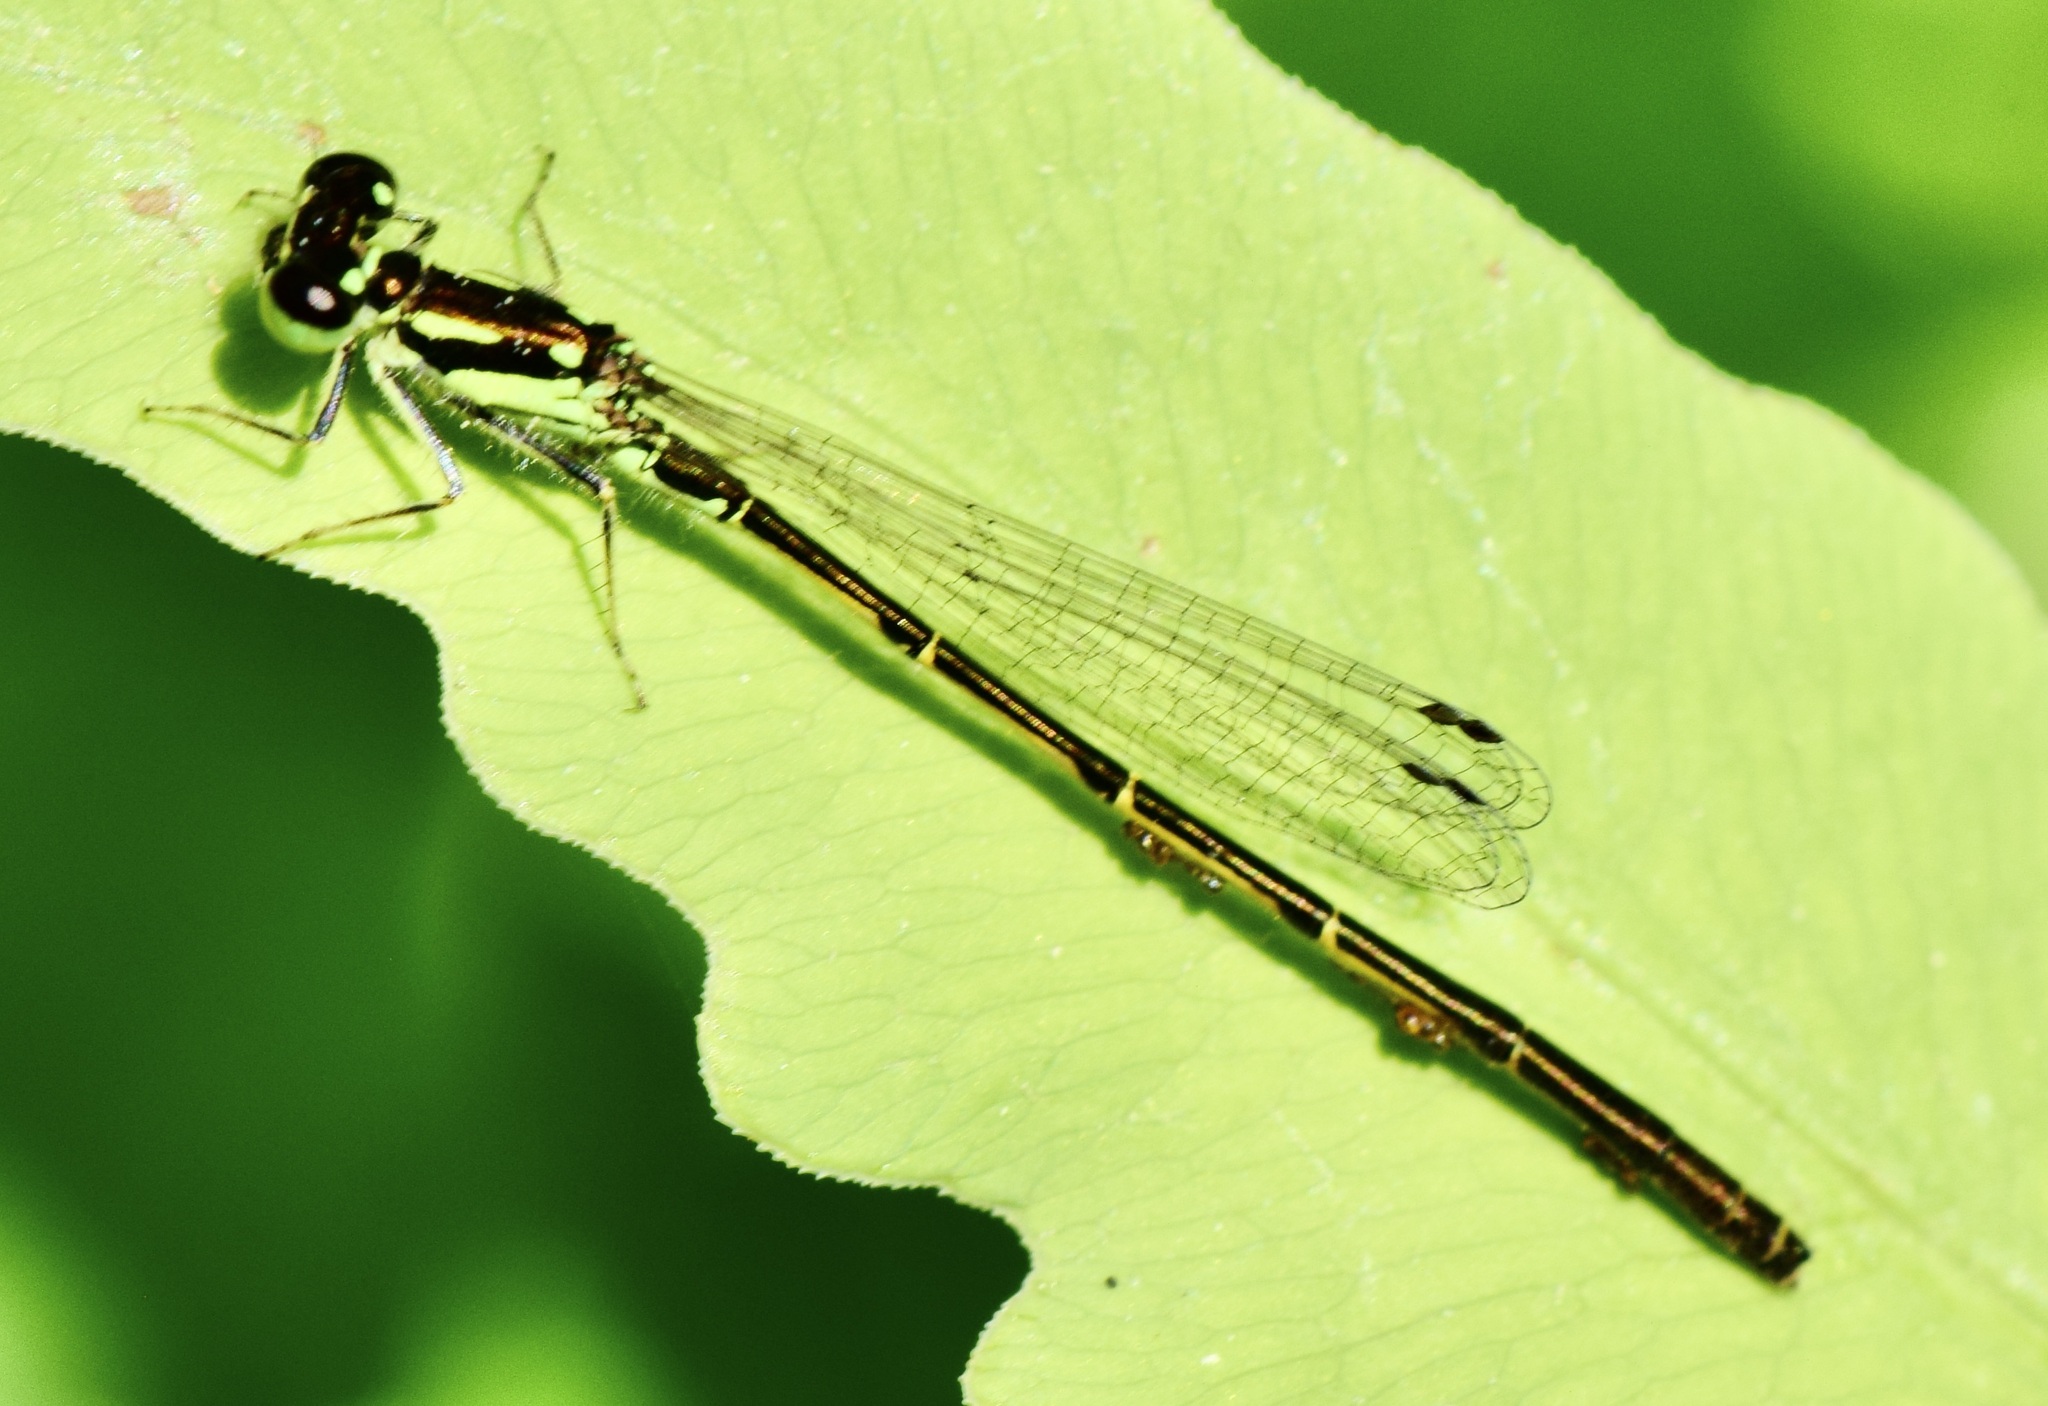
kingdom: Animalia
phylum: Arthropoda
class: Insecta
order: Odonata
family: Coenagrionidae
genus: Ischnura
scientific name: Ischnura posita
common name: Fragile forktail
